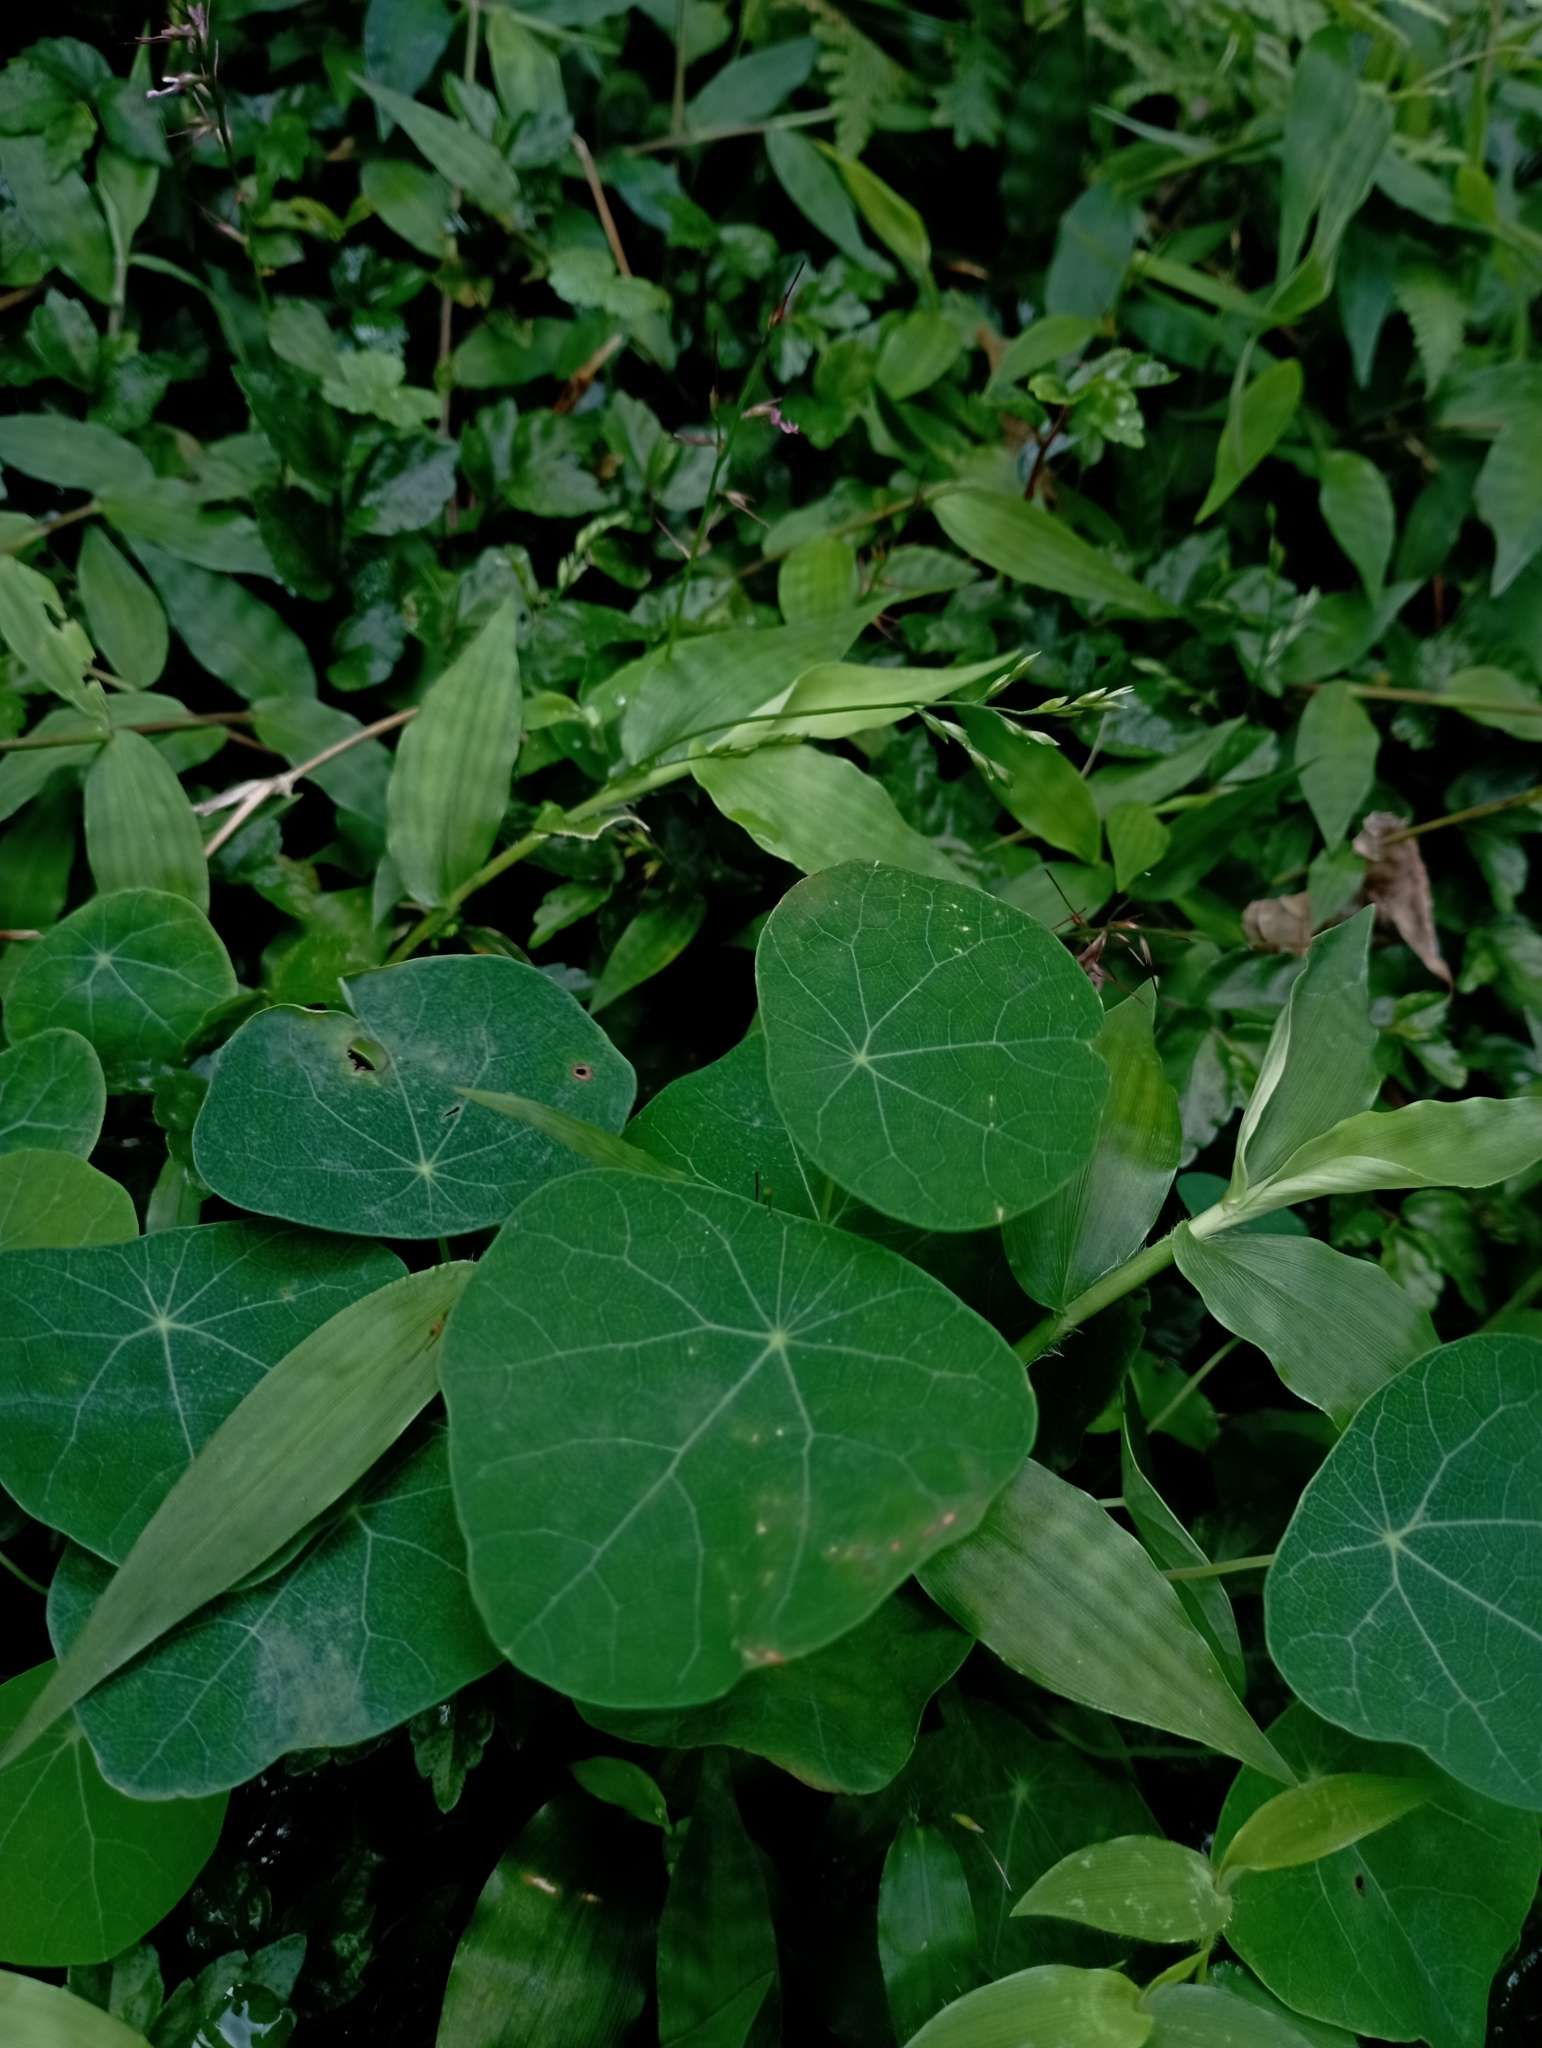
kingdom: Plantae
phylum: Tracheophyta
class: Magnoliopsida
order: Ranunculales
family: Menispermaceae
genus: Stephania
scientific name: Stephania cephalantha
